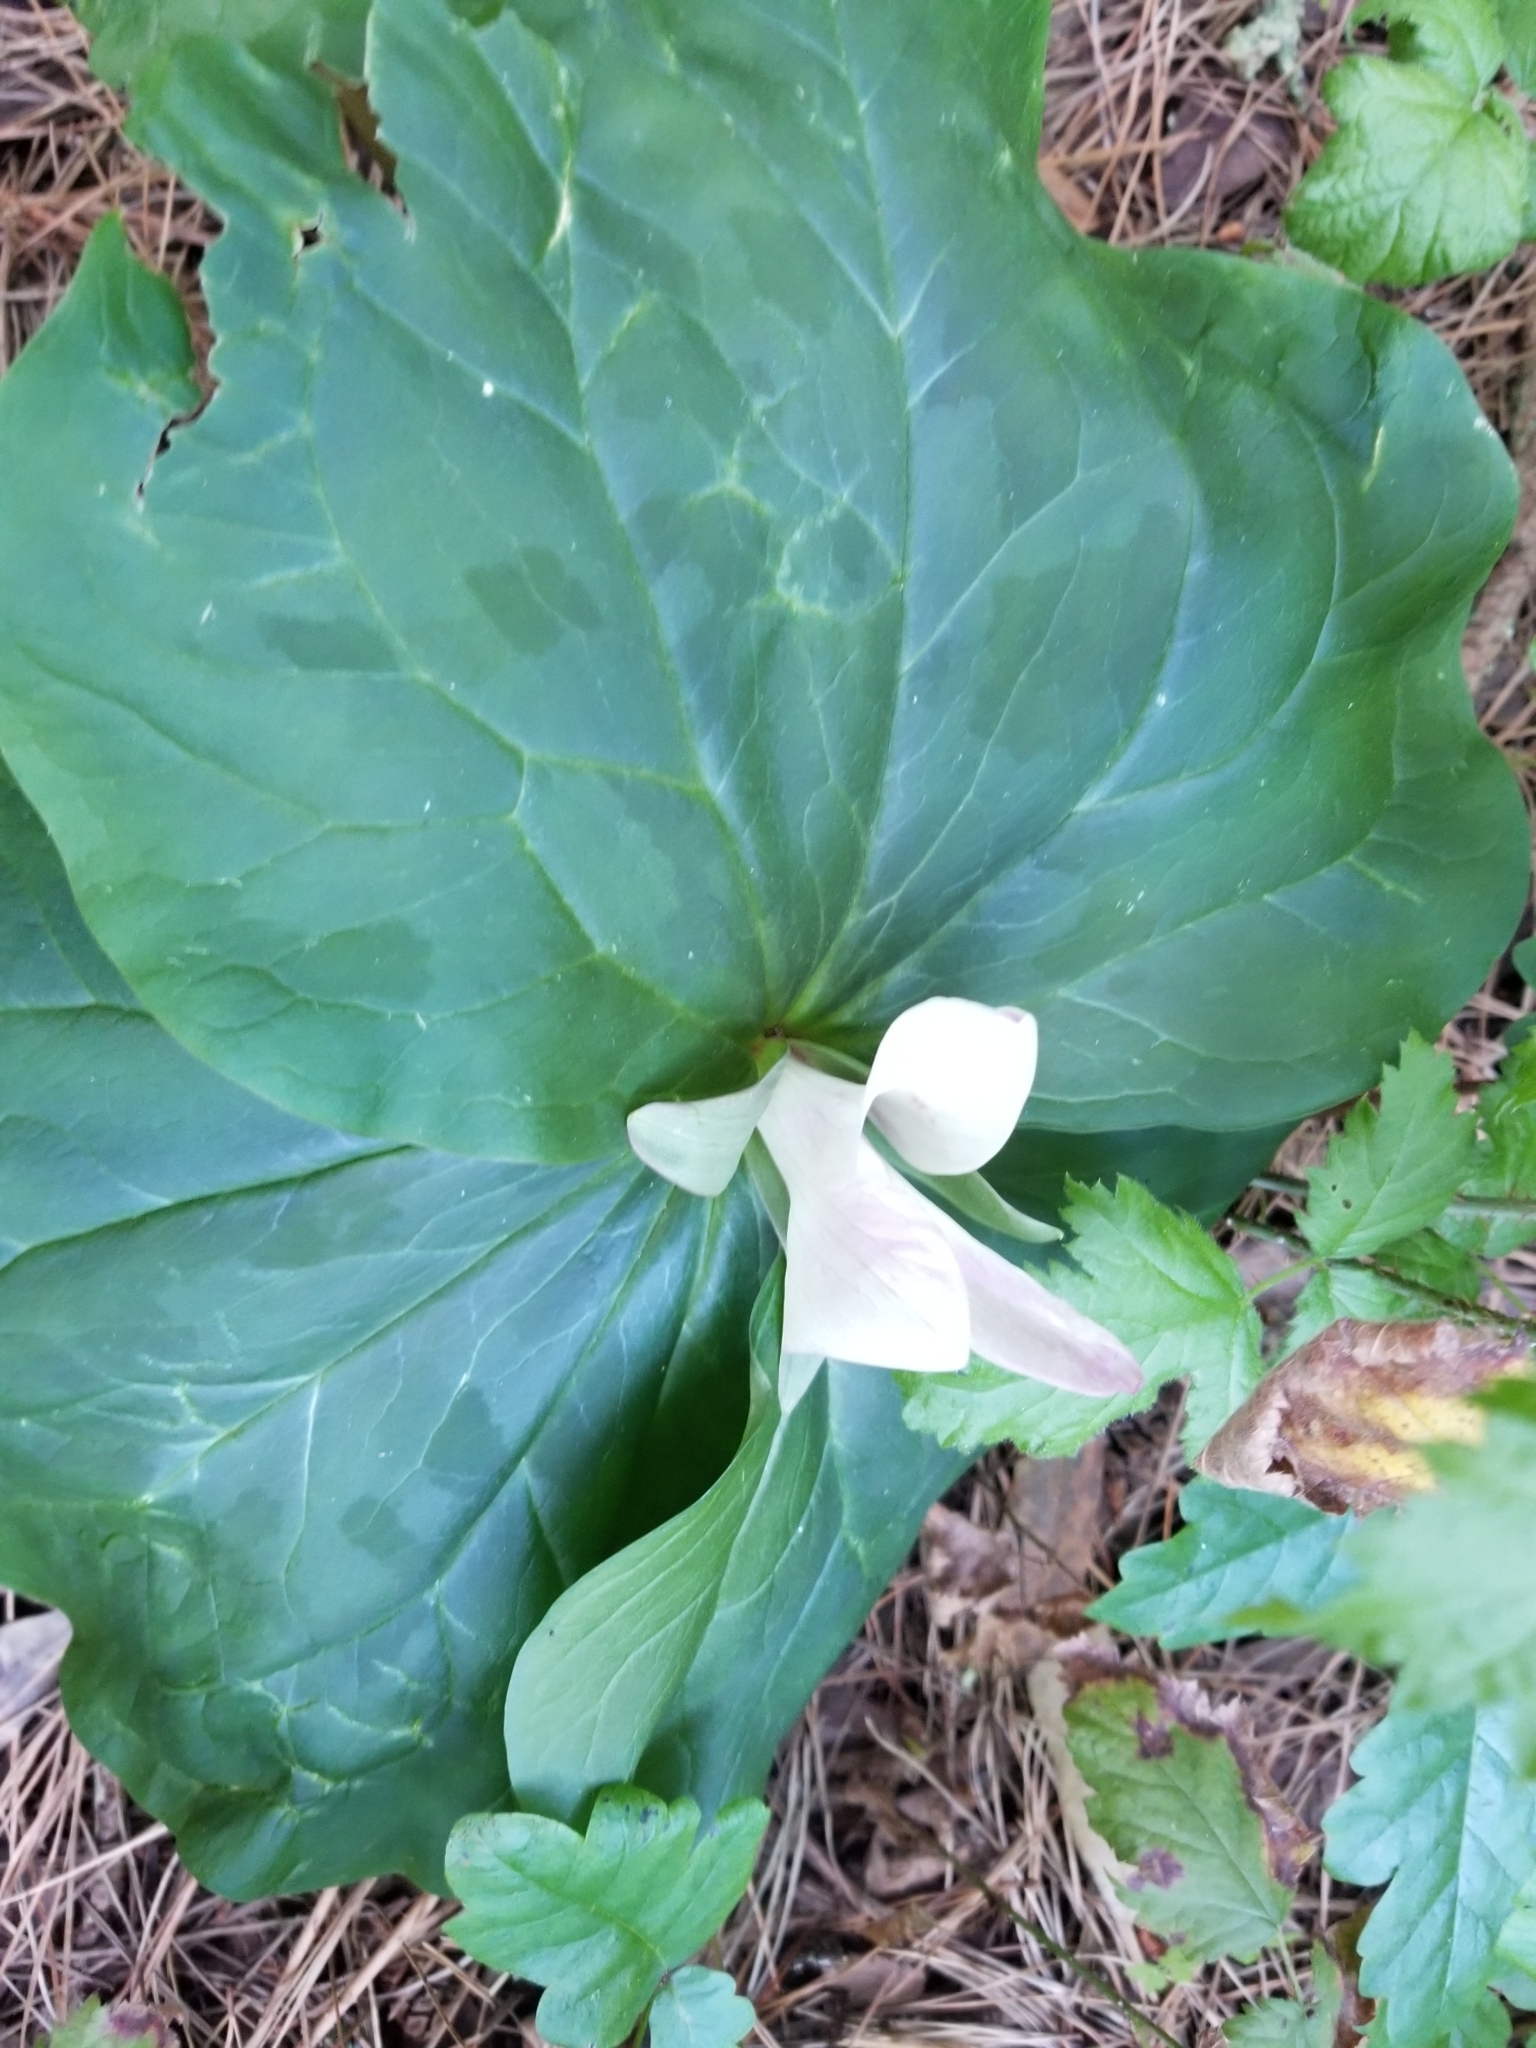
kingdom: Plantae
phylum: Tracheophyta
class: Liliopsida
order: Liliales
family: Melanthiaceae
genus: Trillium
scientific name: Trillium
